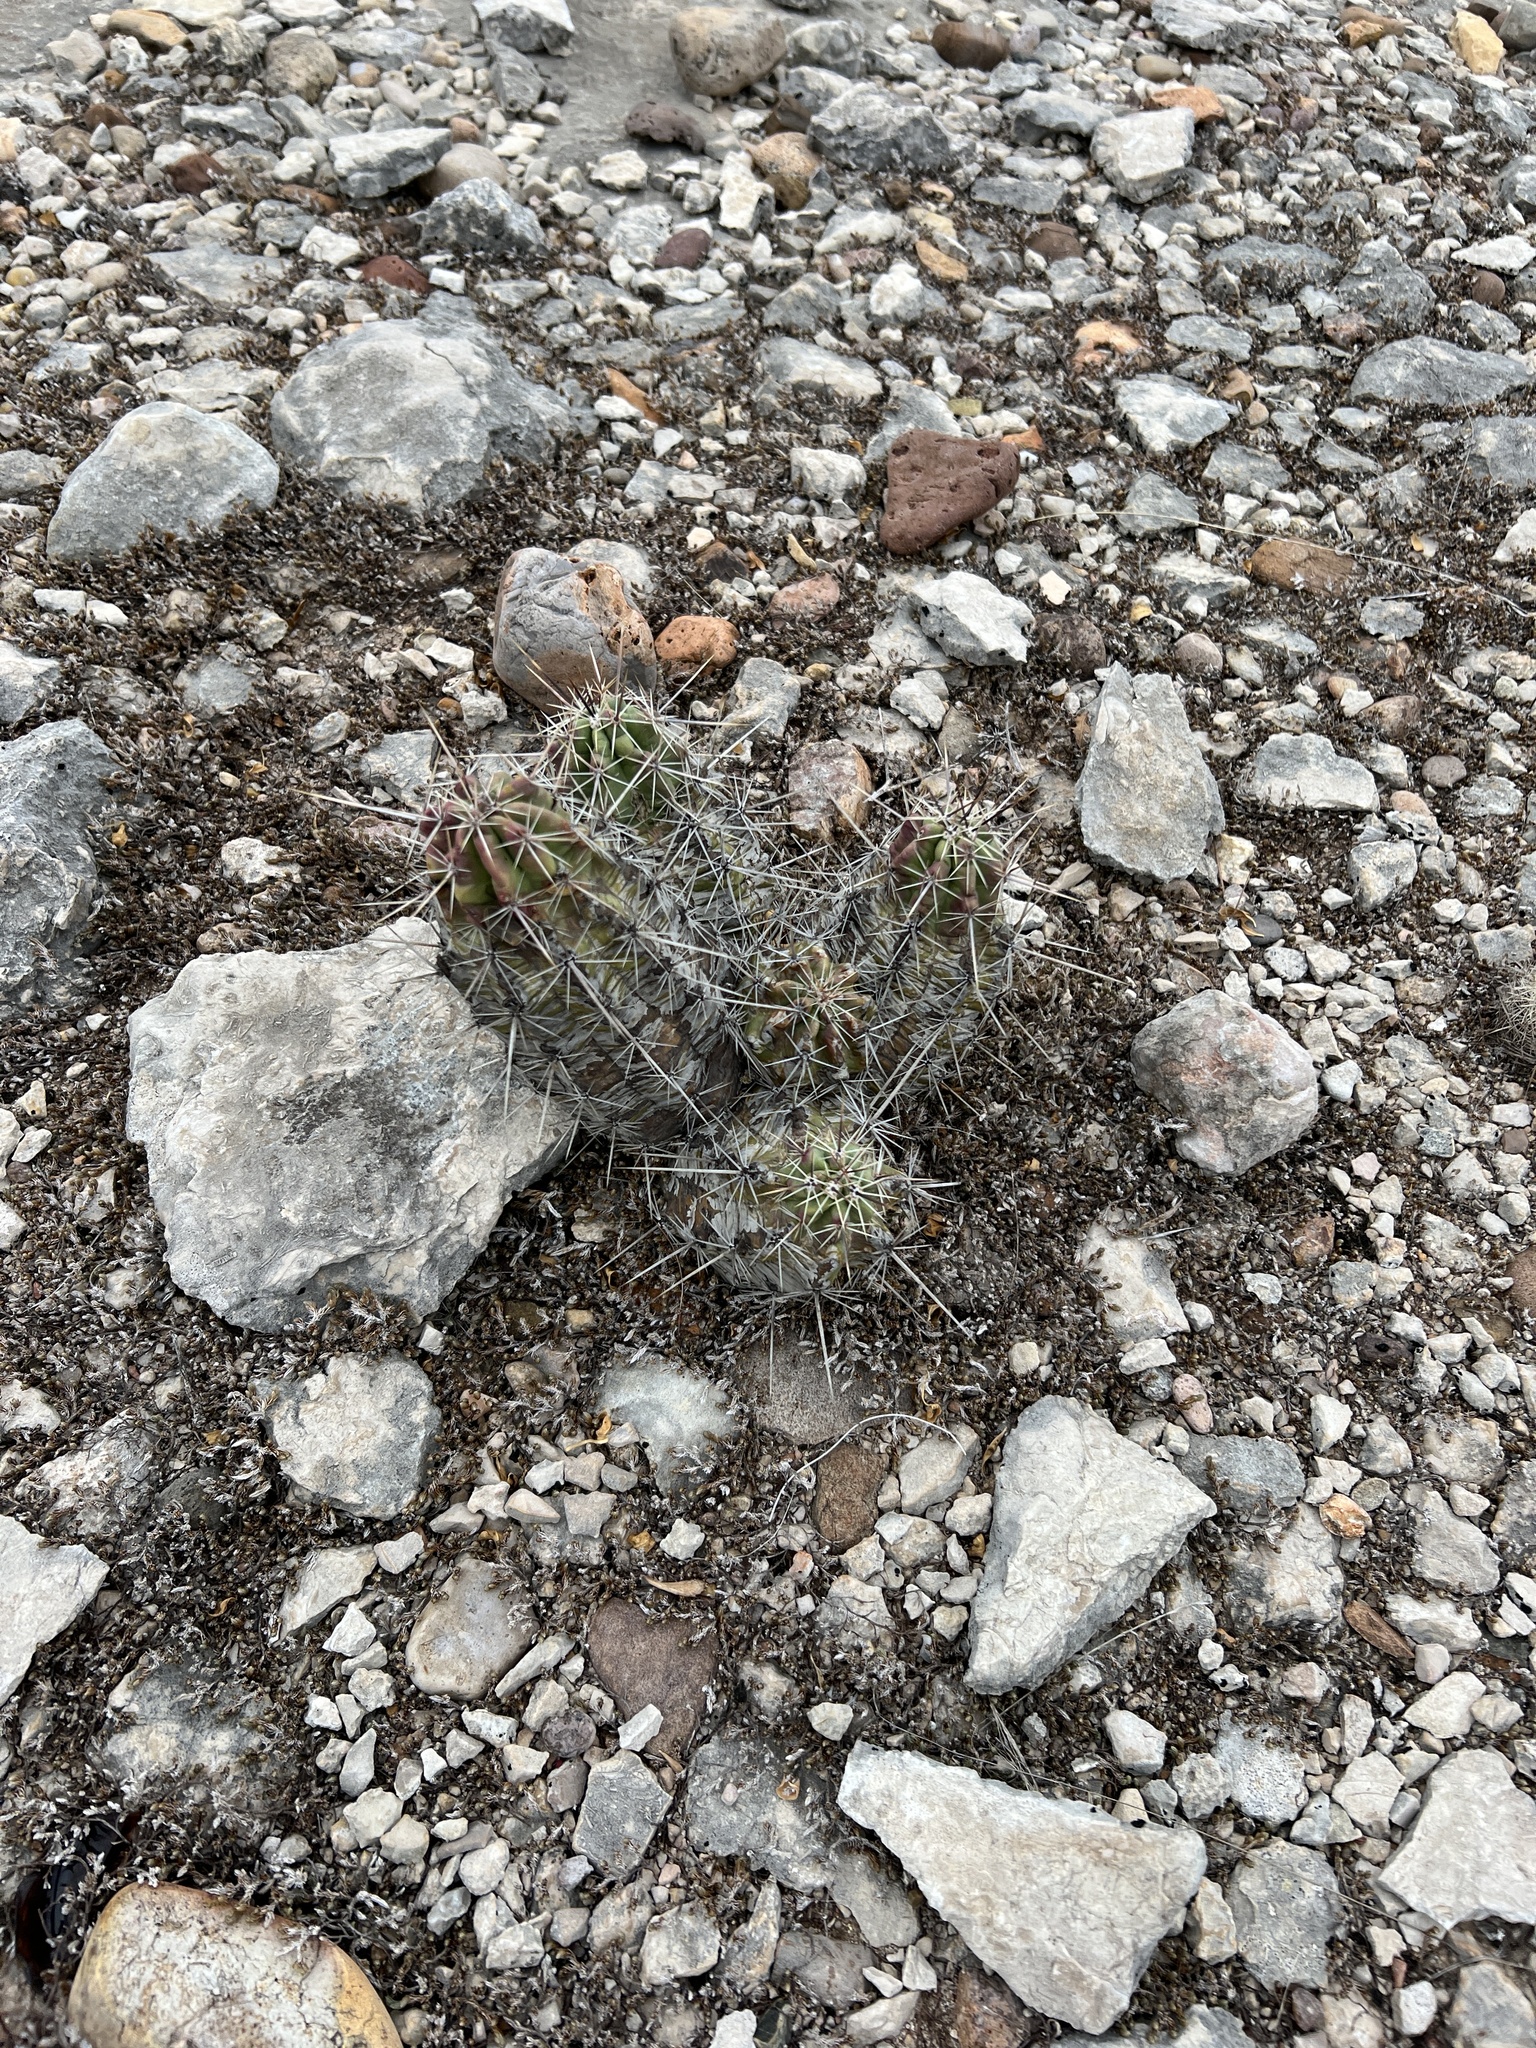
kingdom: Plantae
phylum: Tracheophyta
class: Magnoliopsida
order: Caryophyllales
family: Cactaceae
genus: Echinocereus
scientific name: Echinocereus enneacanthus
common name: Pitaya
